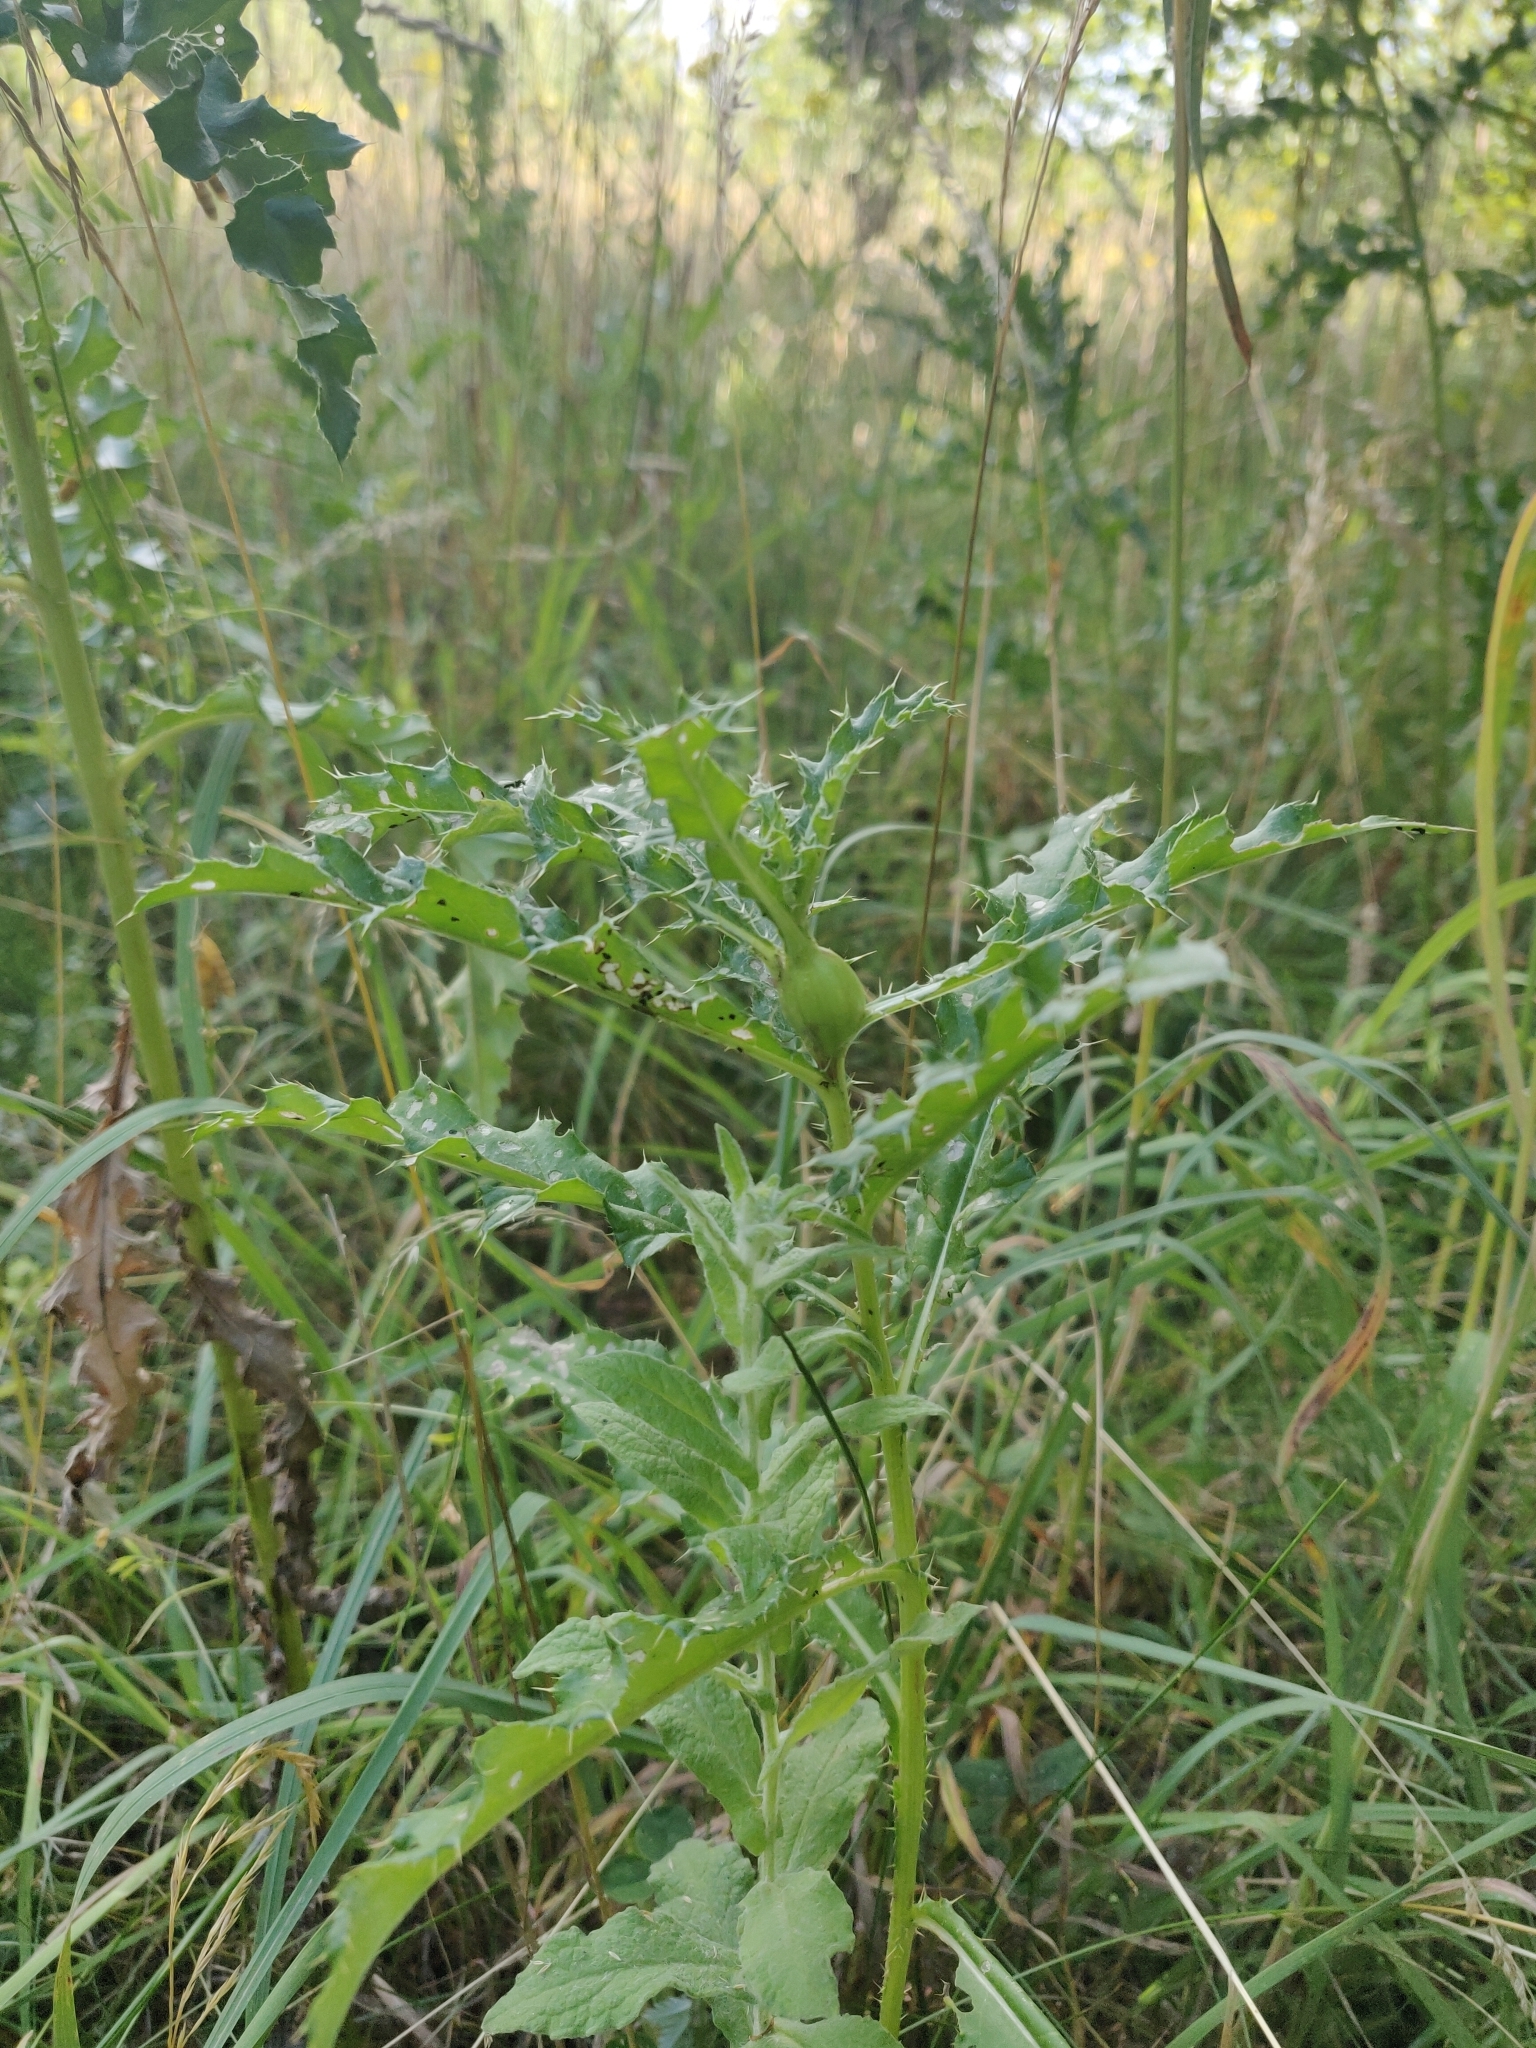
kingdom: Animalia
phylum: Arthropoda
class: Insecta
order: Diptera
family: Tephritidae
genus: Urophora
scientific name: Urophora cardui
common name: Fruit fly
